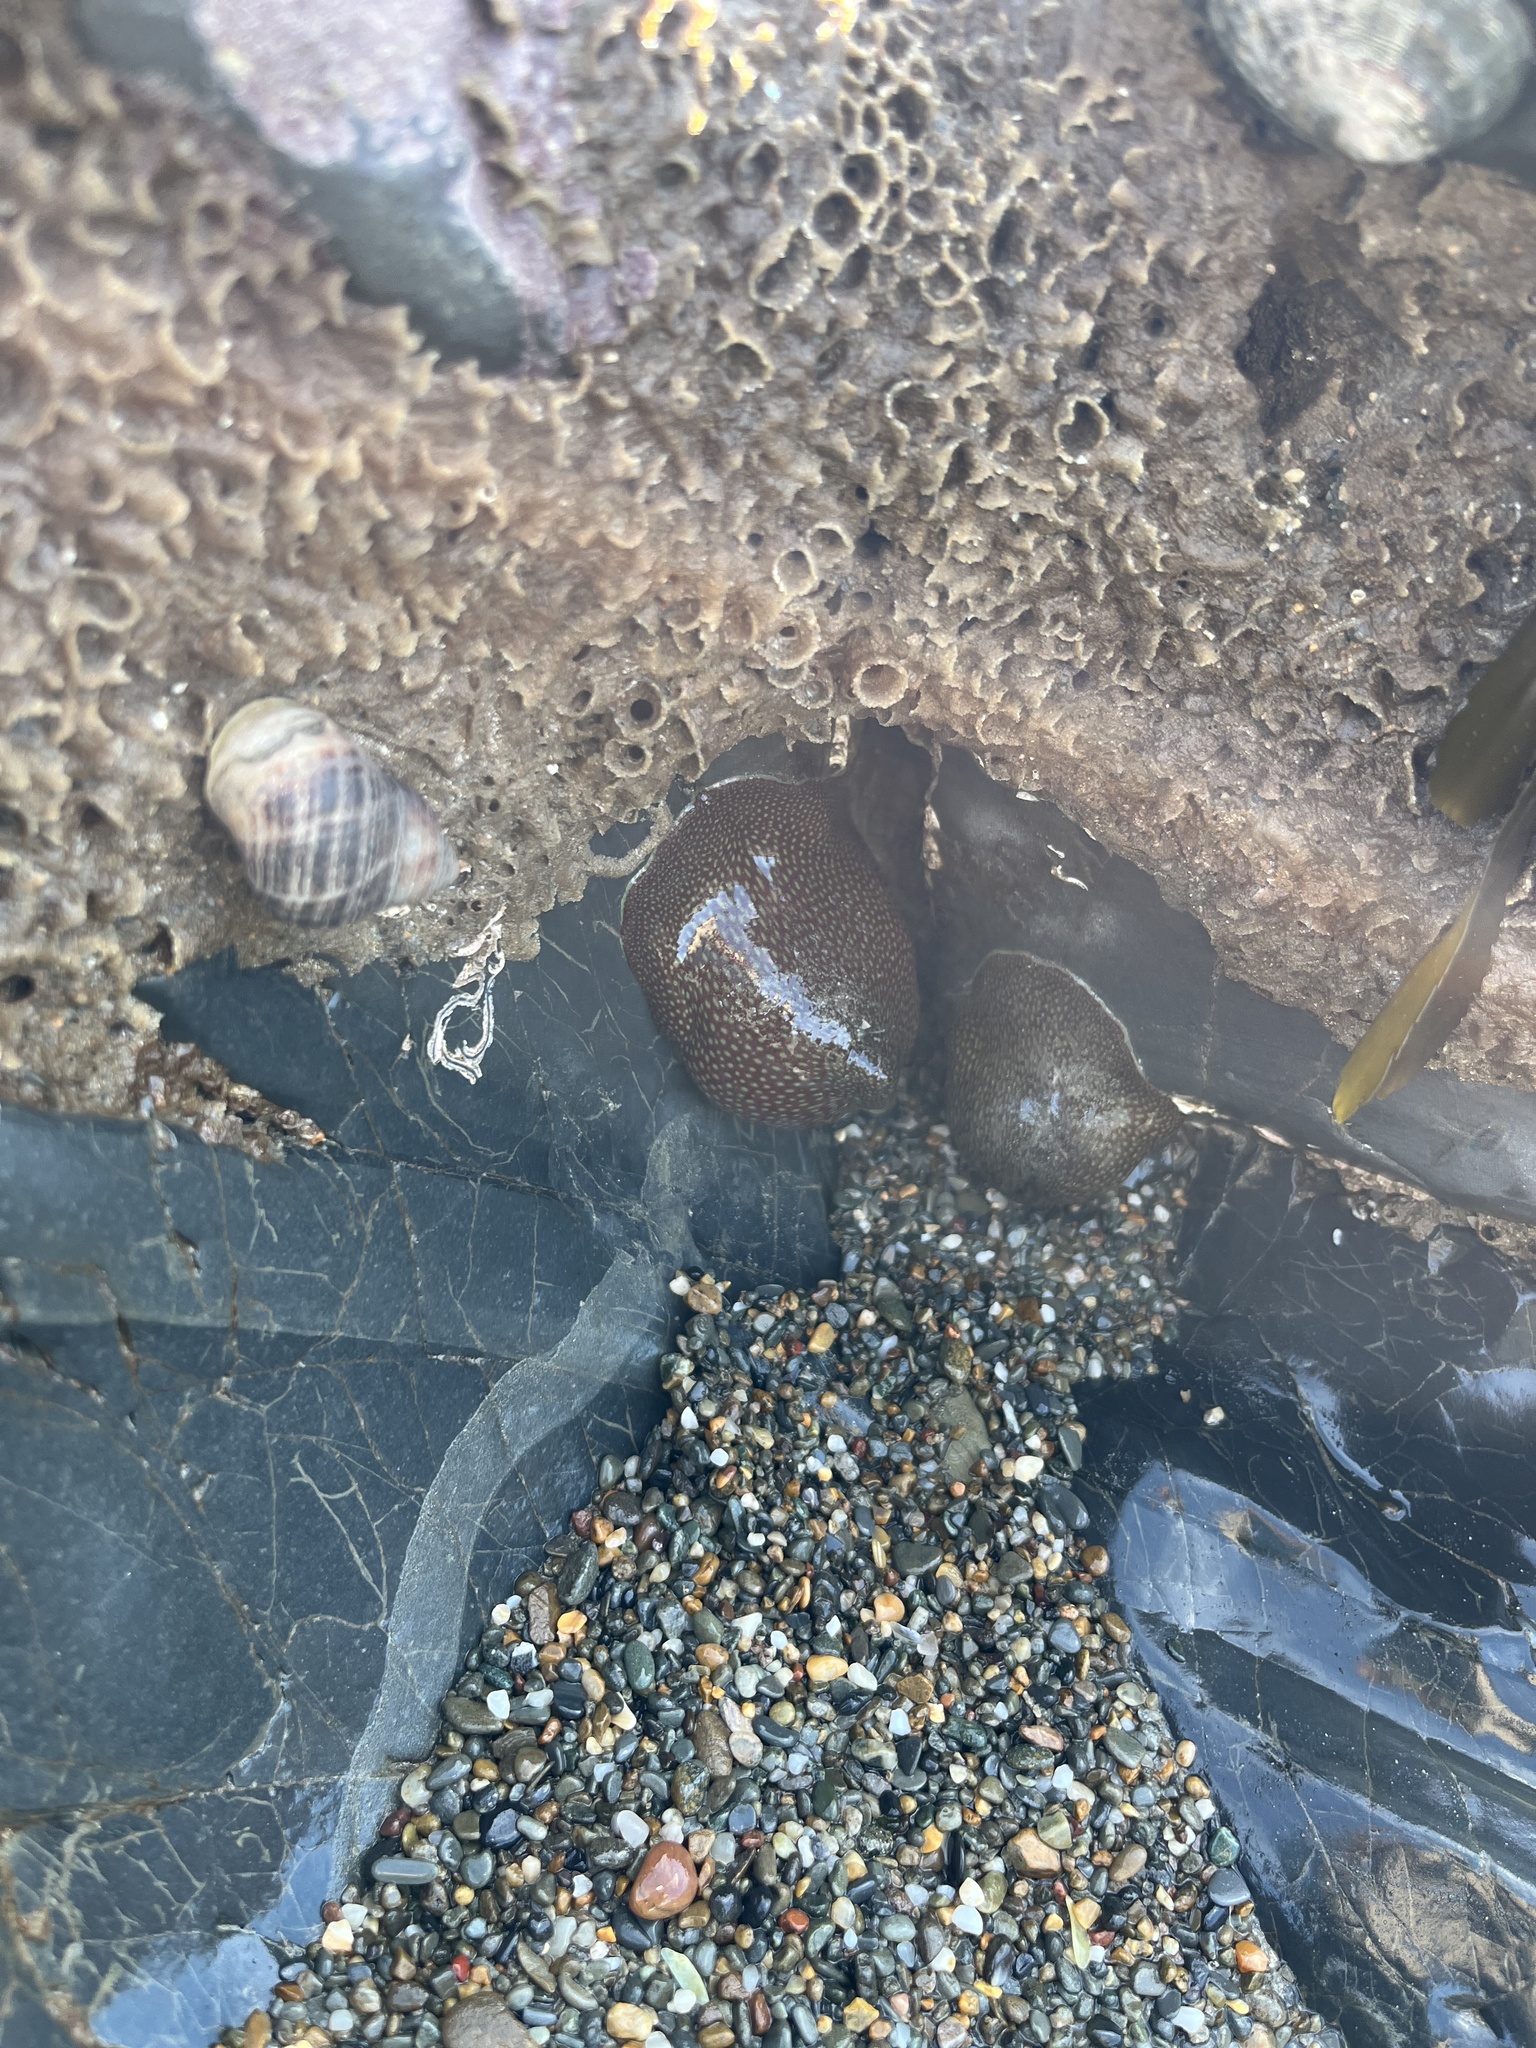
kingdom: Animalia
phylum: Cnidaria
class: Anthozoa
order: Actiniaria
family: Actiniidae
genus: Actinia
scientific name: Actinia fragacea
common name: Strawberry anemone
